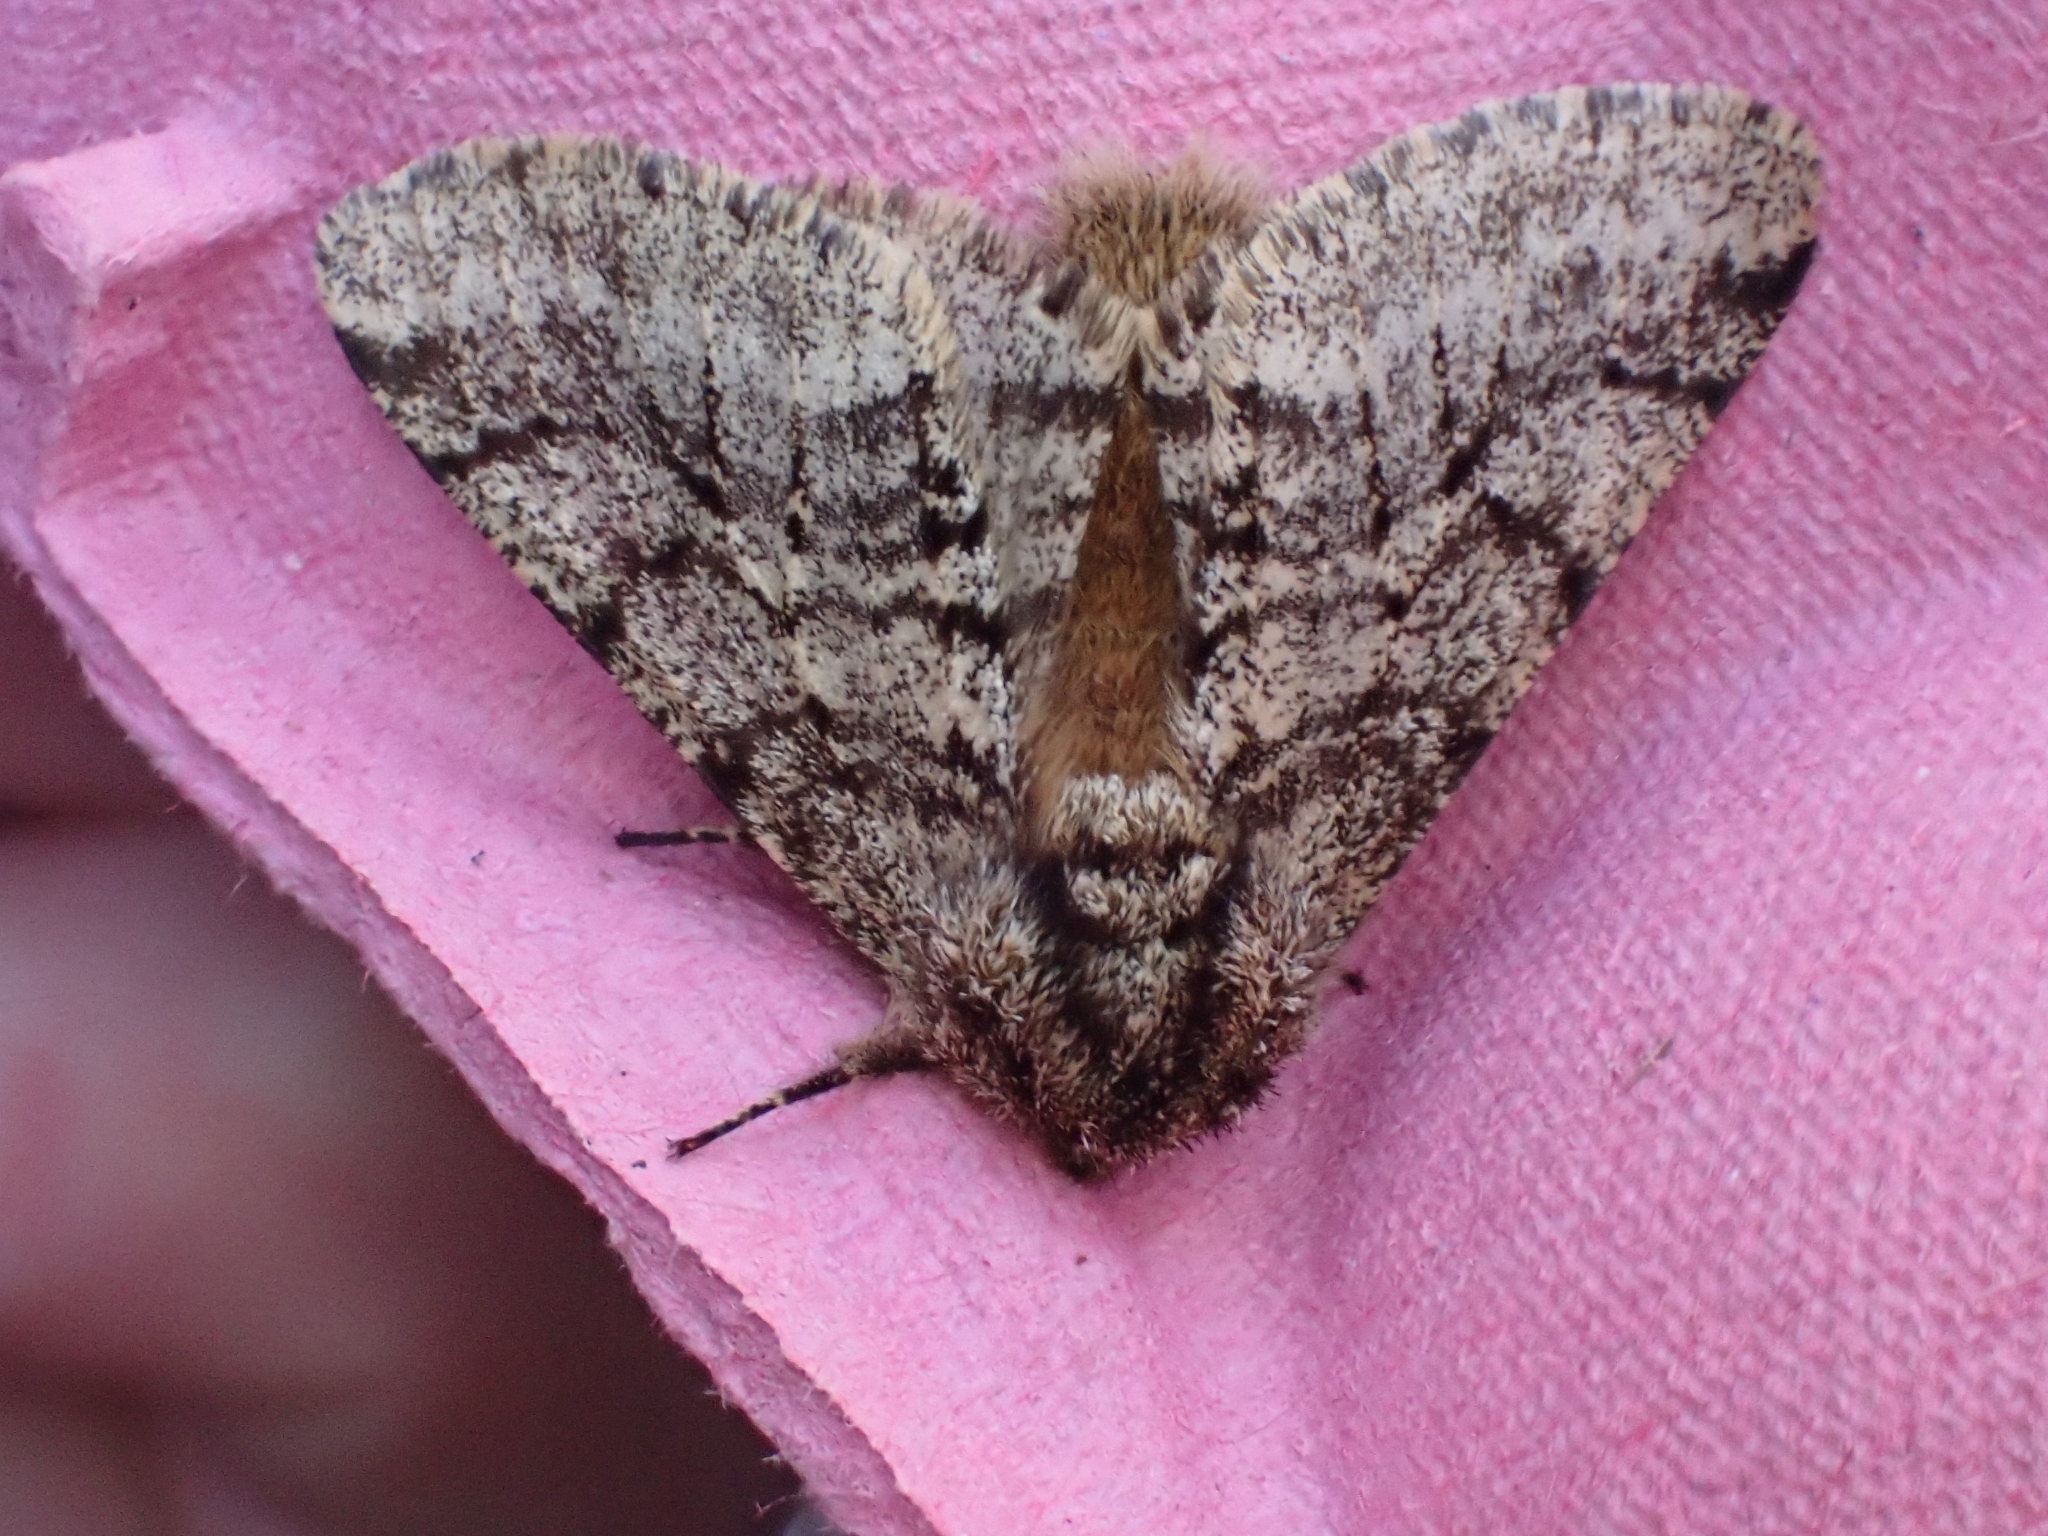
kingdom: Animalia
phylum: Arthropoda
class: Insecta
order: Lepidoptera
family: Geometridae
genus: Lycia
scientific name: Lycia hirtaria
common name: Brindled beauty
